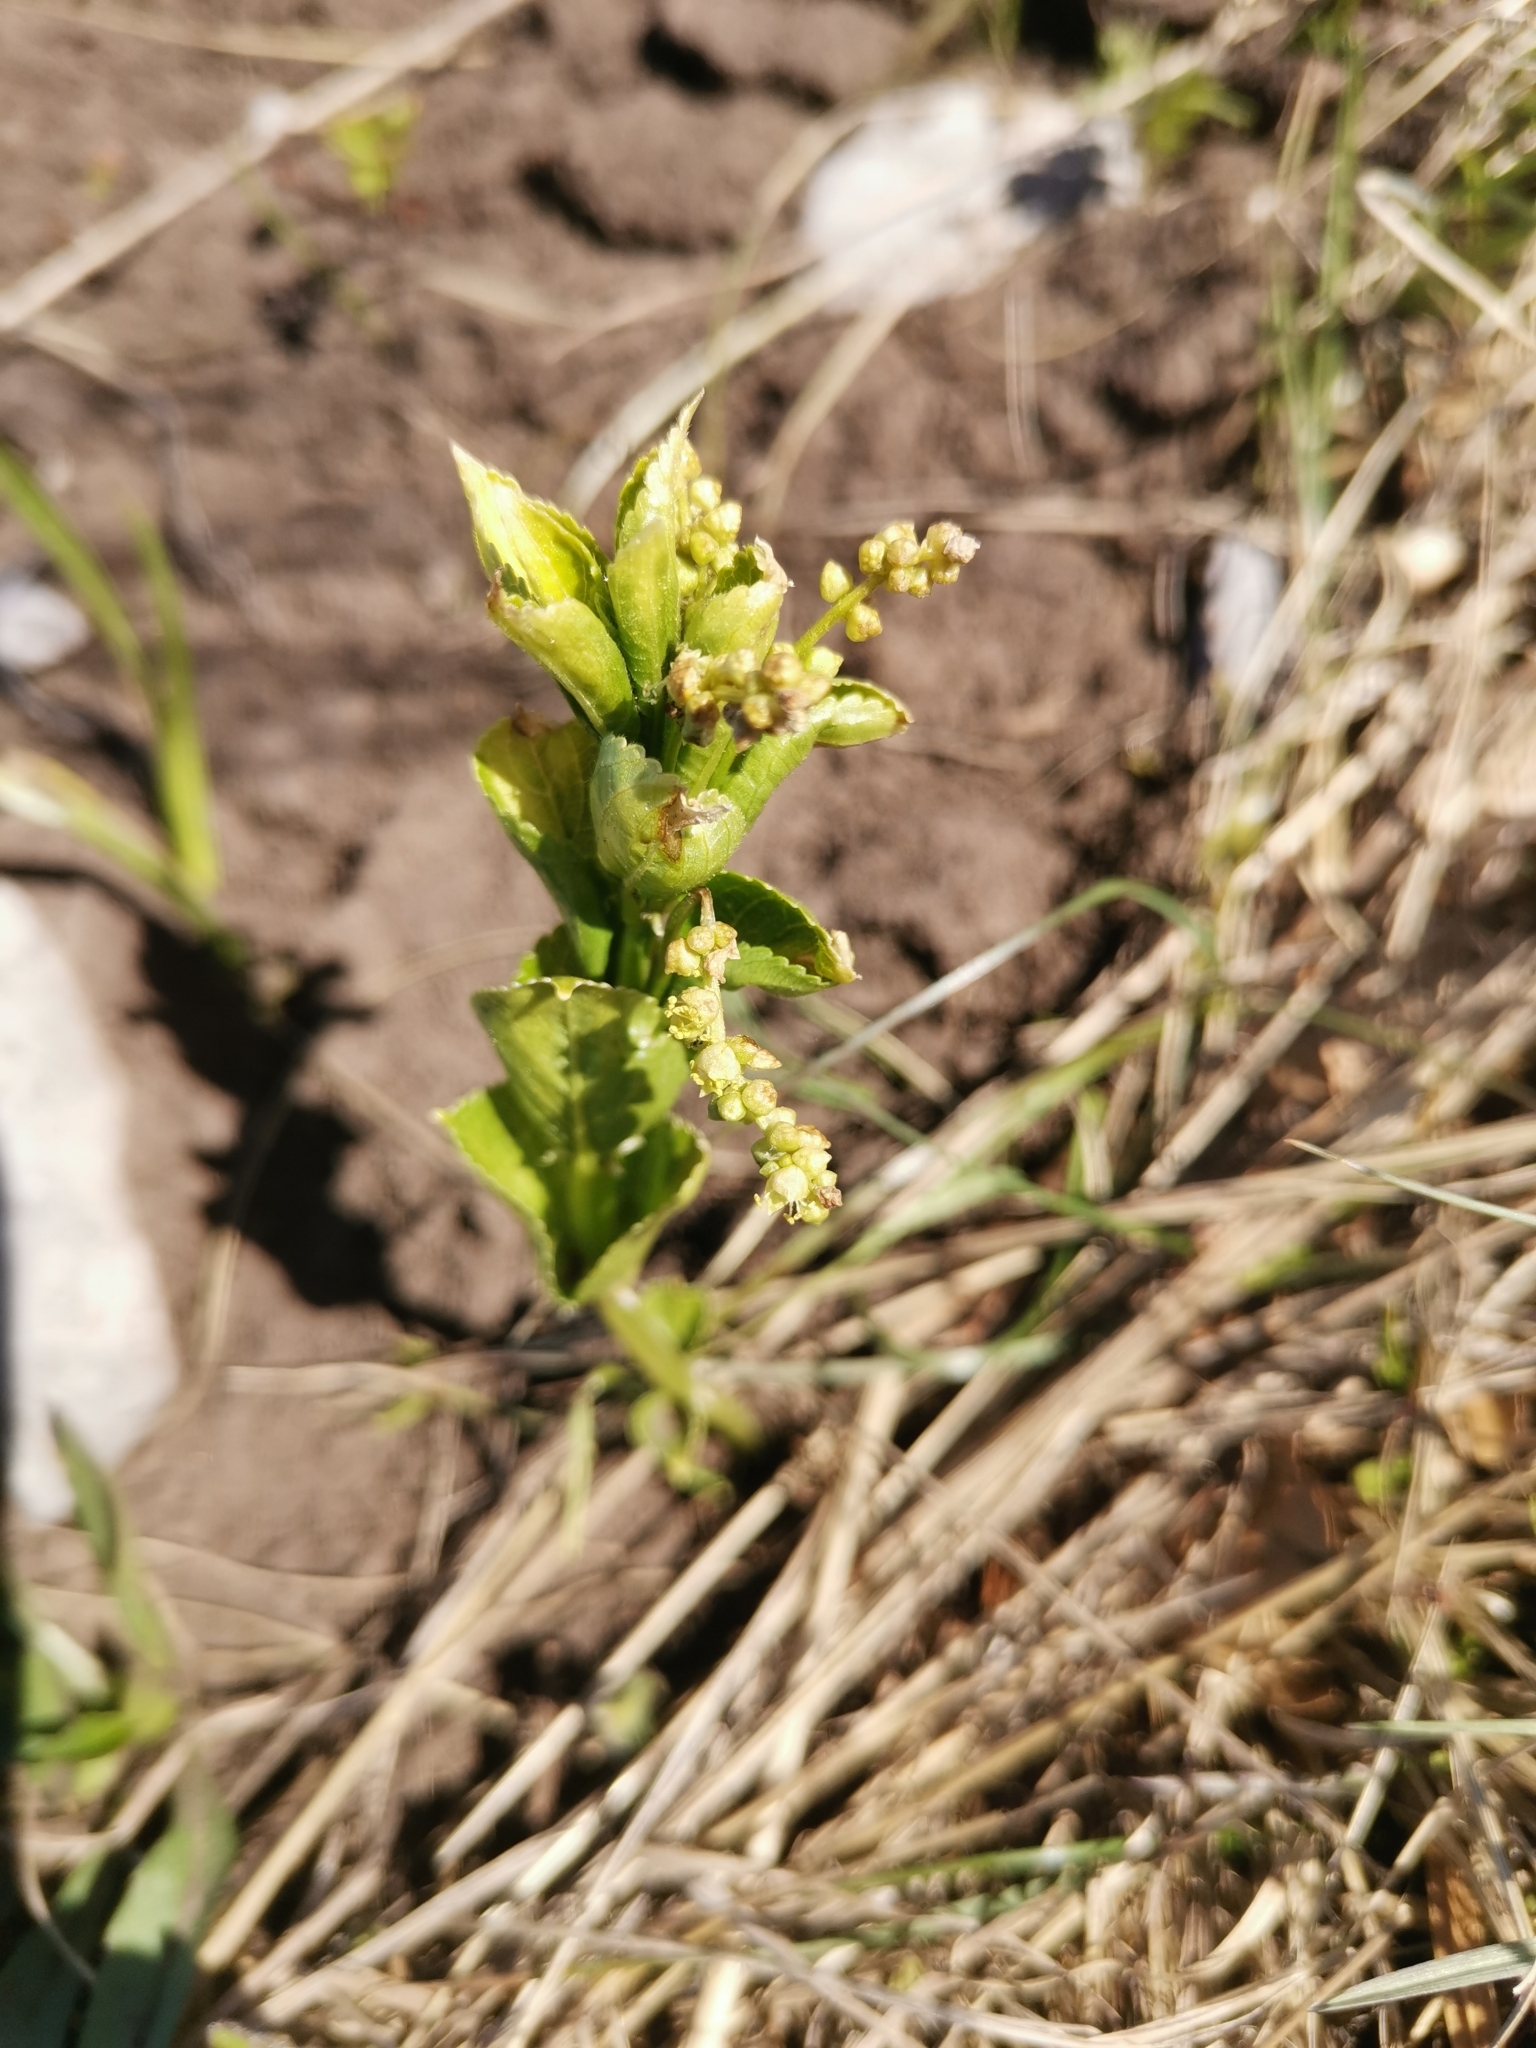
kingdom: Plantae
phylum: Tracheophyta
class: Magnoliopsida
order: Malpighiales
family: Euphorbiaceae
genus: Mercurialis
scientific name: Mercurialis ovata
